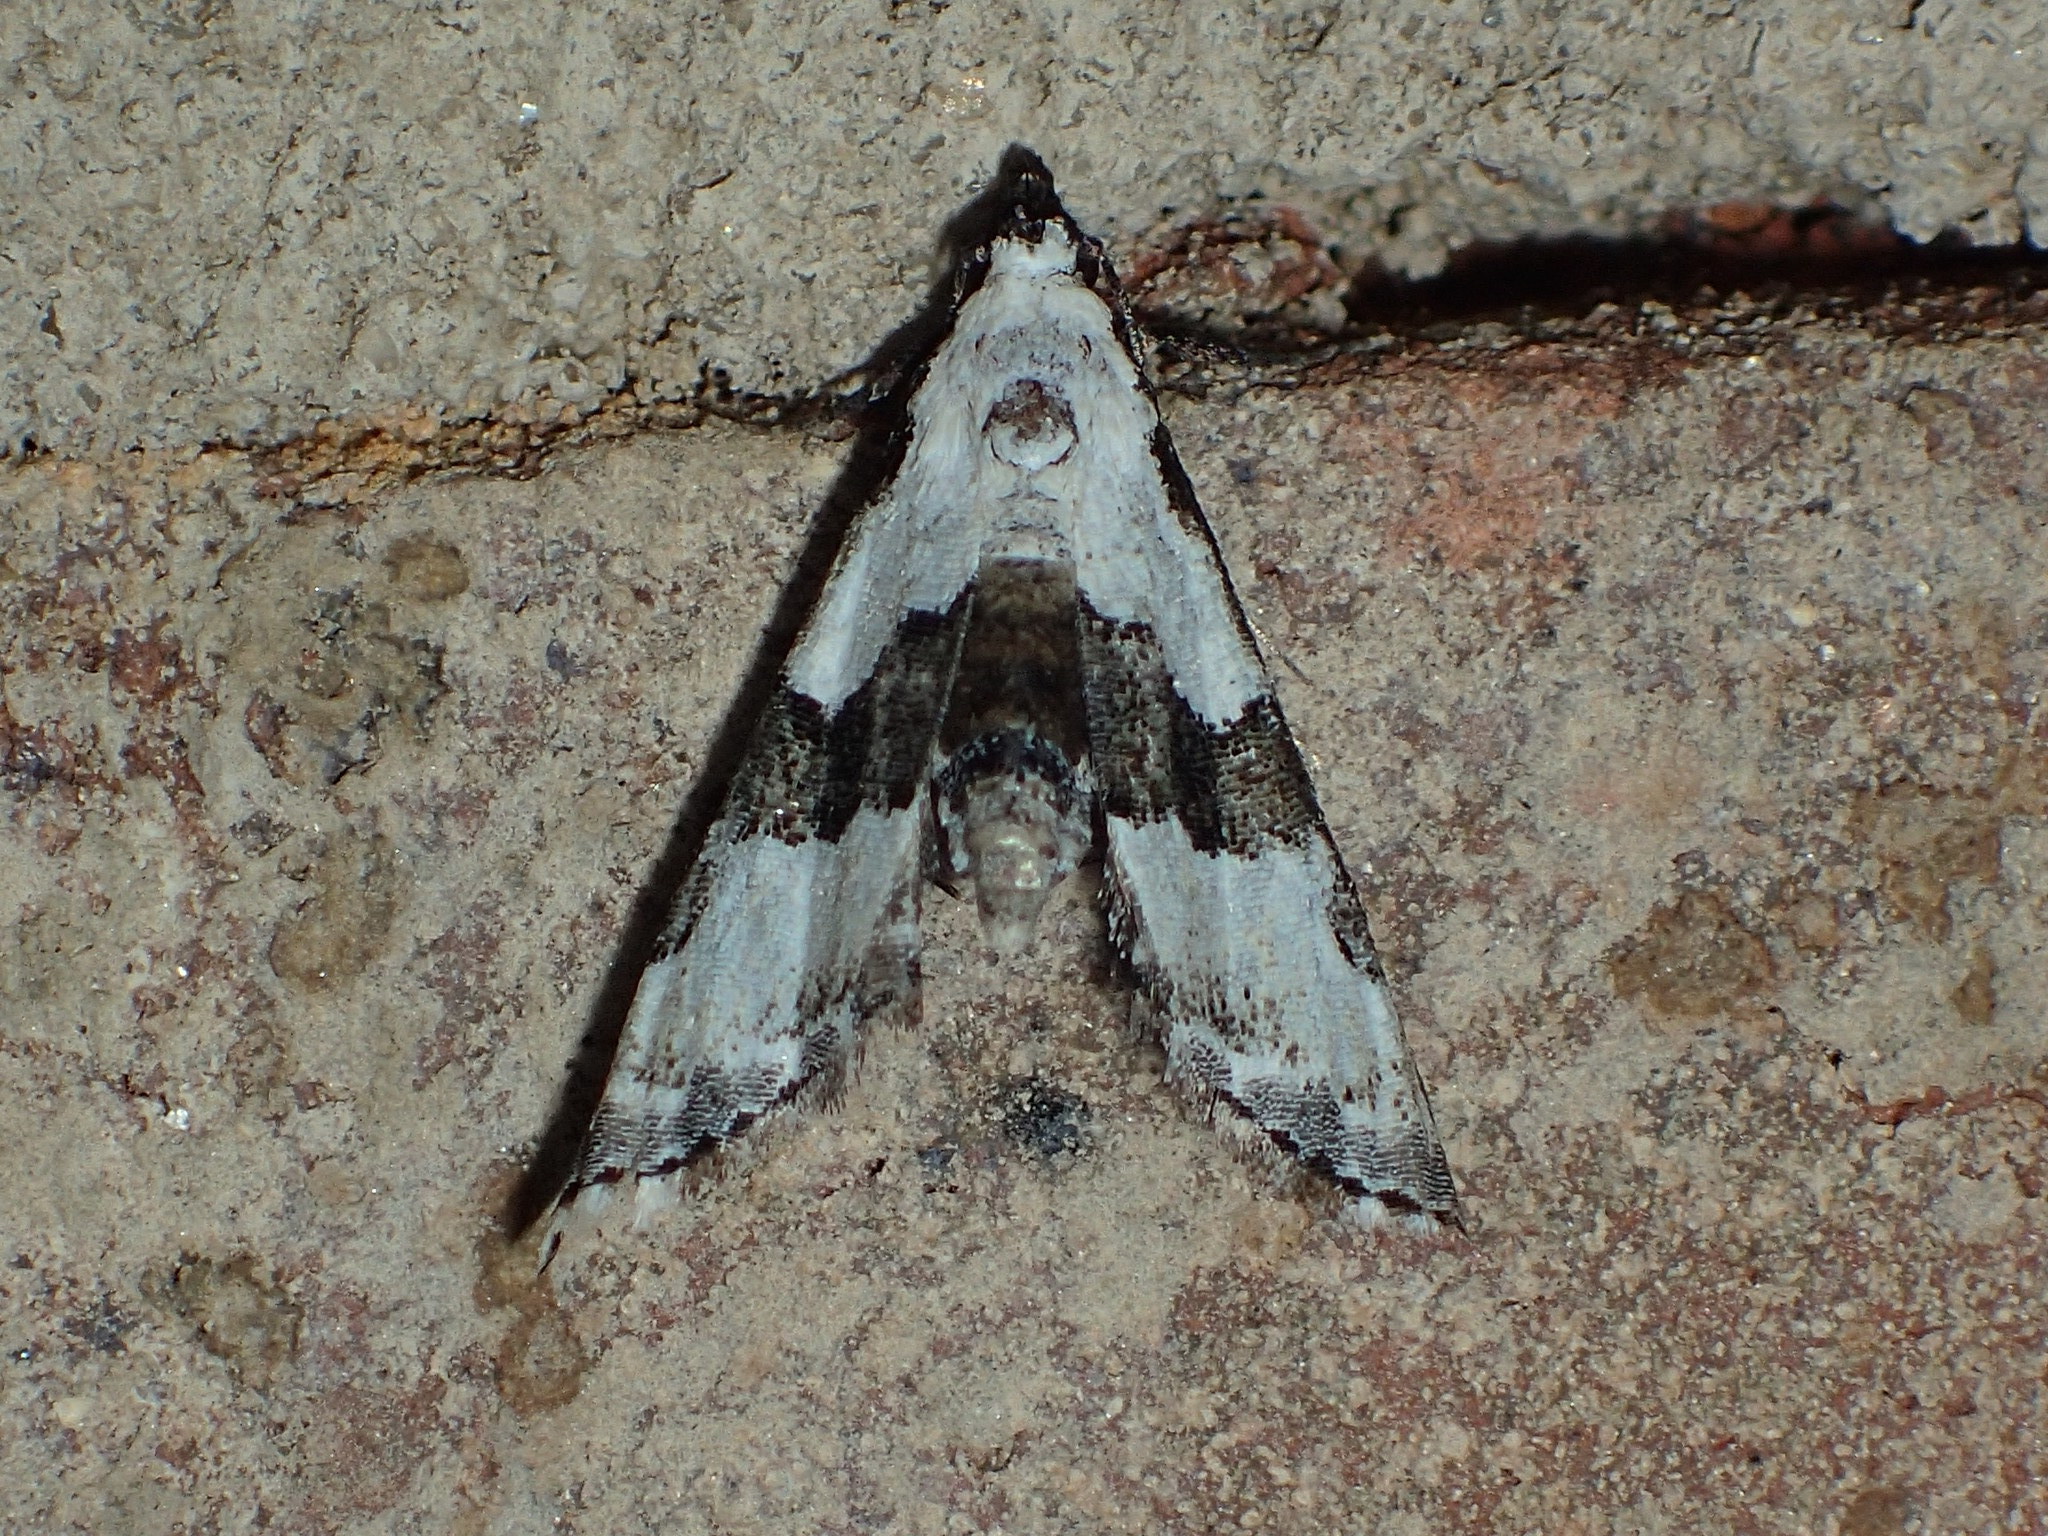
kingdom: Animalia
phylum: Arthropoda
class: Insecta
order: Lepidoptera
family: Noctuidae
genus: Nigetia
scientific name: Nigetia formosalis
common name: Thin-winged owlet
